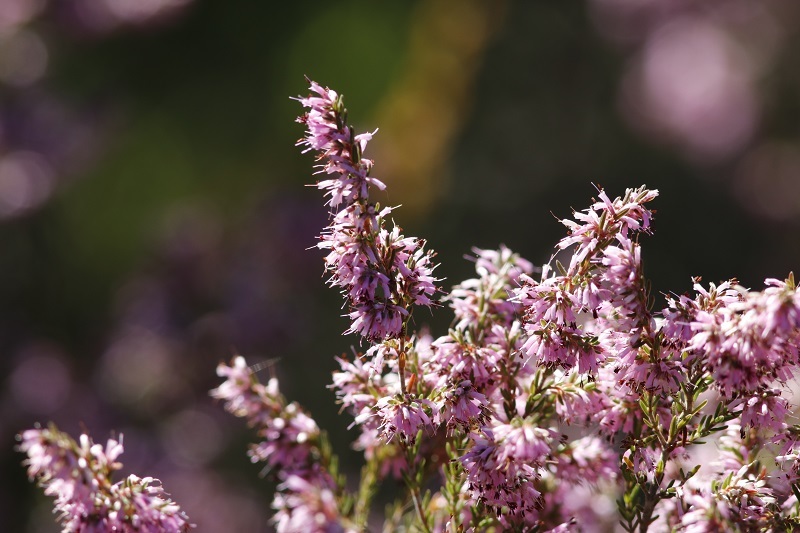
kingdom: Plantae
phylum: Tracheophyta
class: Magnoliopsida
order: Ericales
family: Ericaceae
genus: Erica
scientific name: Erica uberiflora
